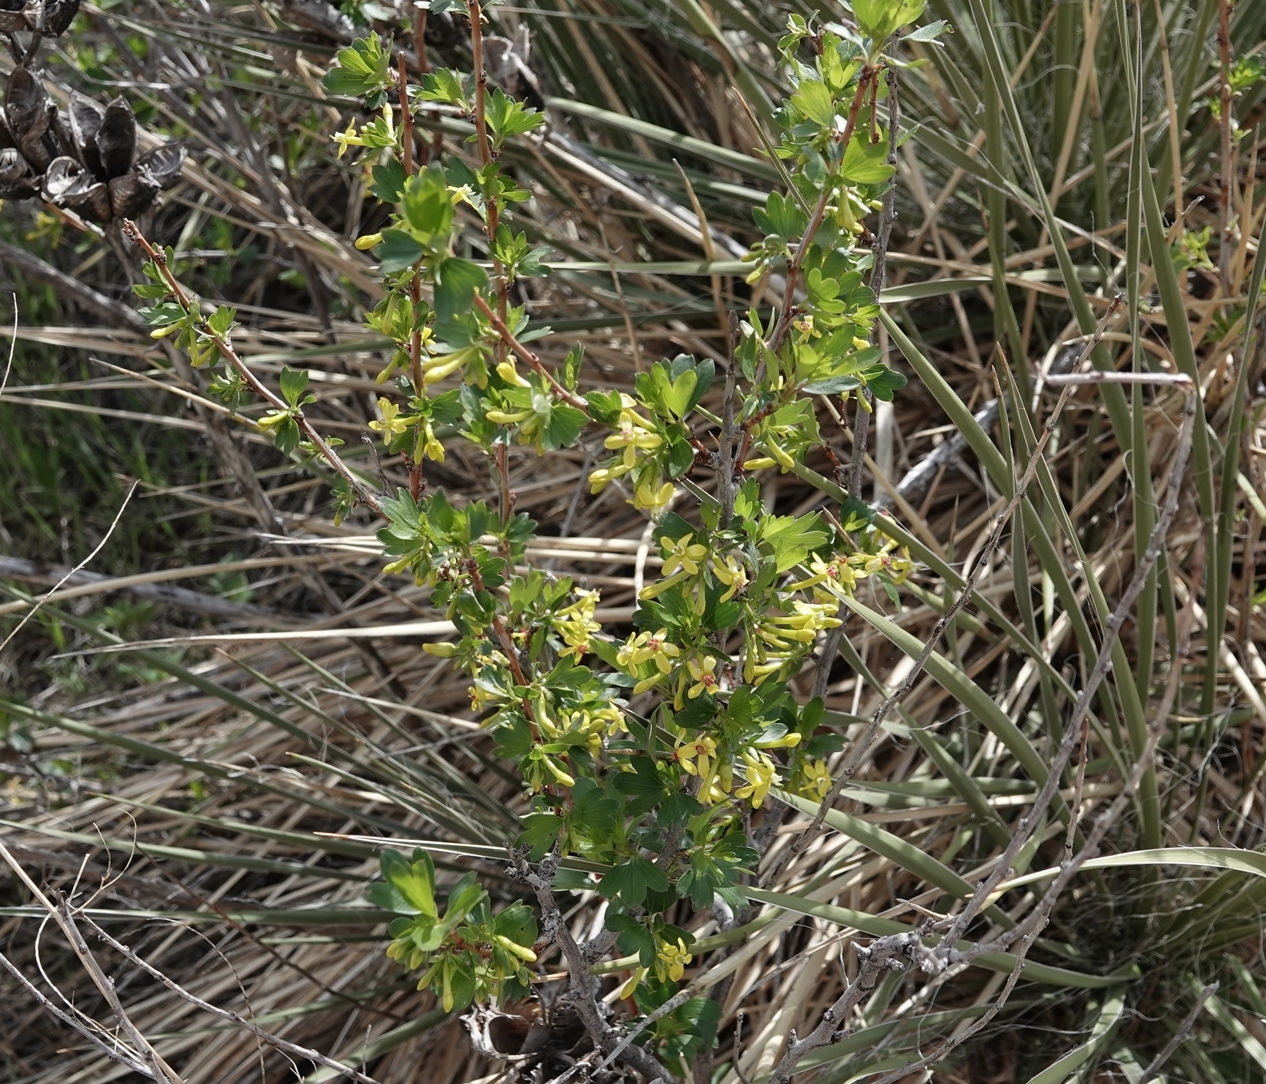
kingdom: Plantae
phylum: Tracheophyta
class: Magnoliopsida
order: Saxifragales
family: Grossulariaceae
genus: Ribes
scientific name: Ribes aureum
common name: Golden currant
